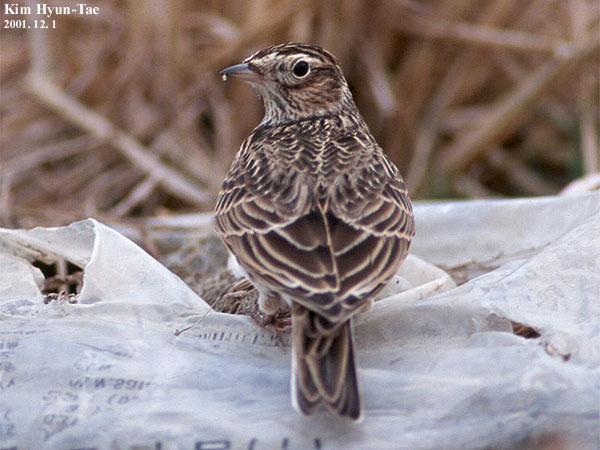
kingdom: Animalia
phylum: Chordata
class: Aves
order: Passeriformes
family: Alaudidae
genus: Alauda
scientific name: Alauda arvensis
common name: Eurasian skylark
